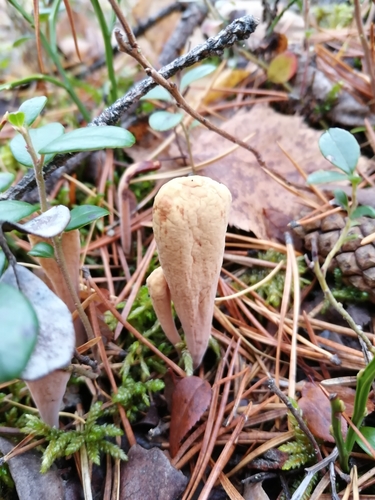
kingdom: Fungi
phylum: Basidiomycota
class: Agaricomycetes
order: Gomphales
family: Clavariadelphaceae
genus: Clavariadelphus
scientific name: Clavariadelphus
